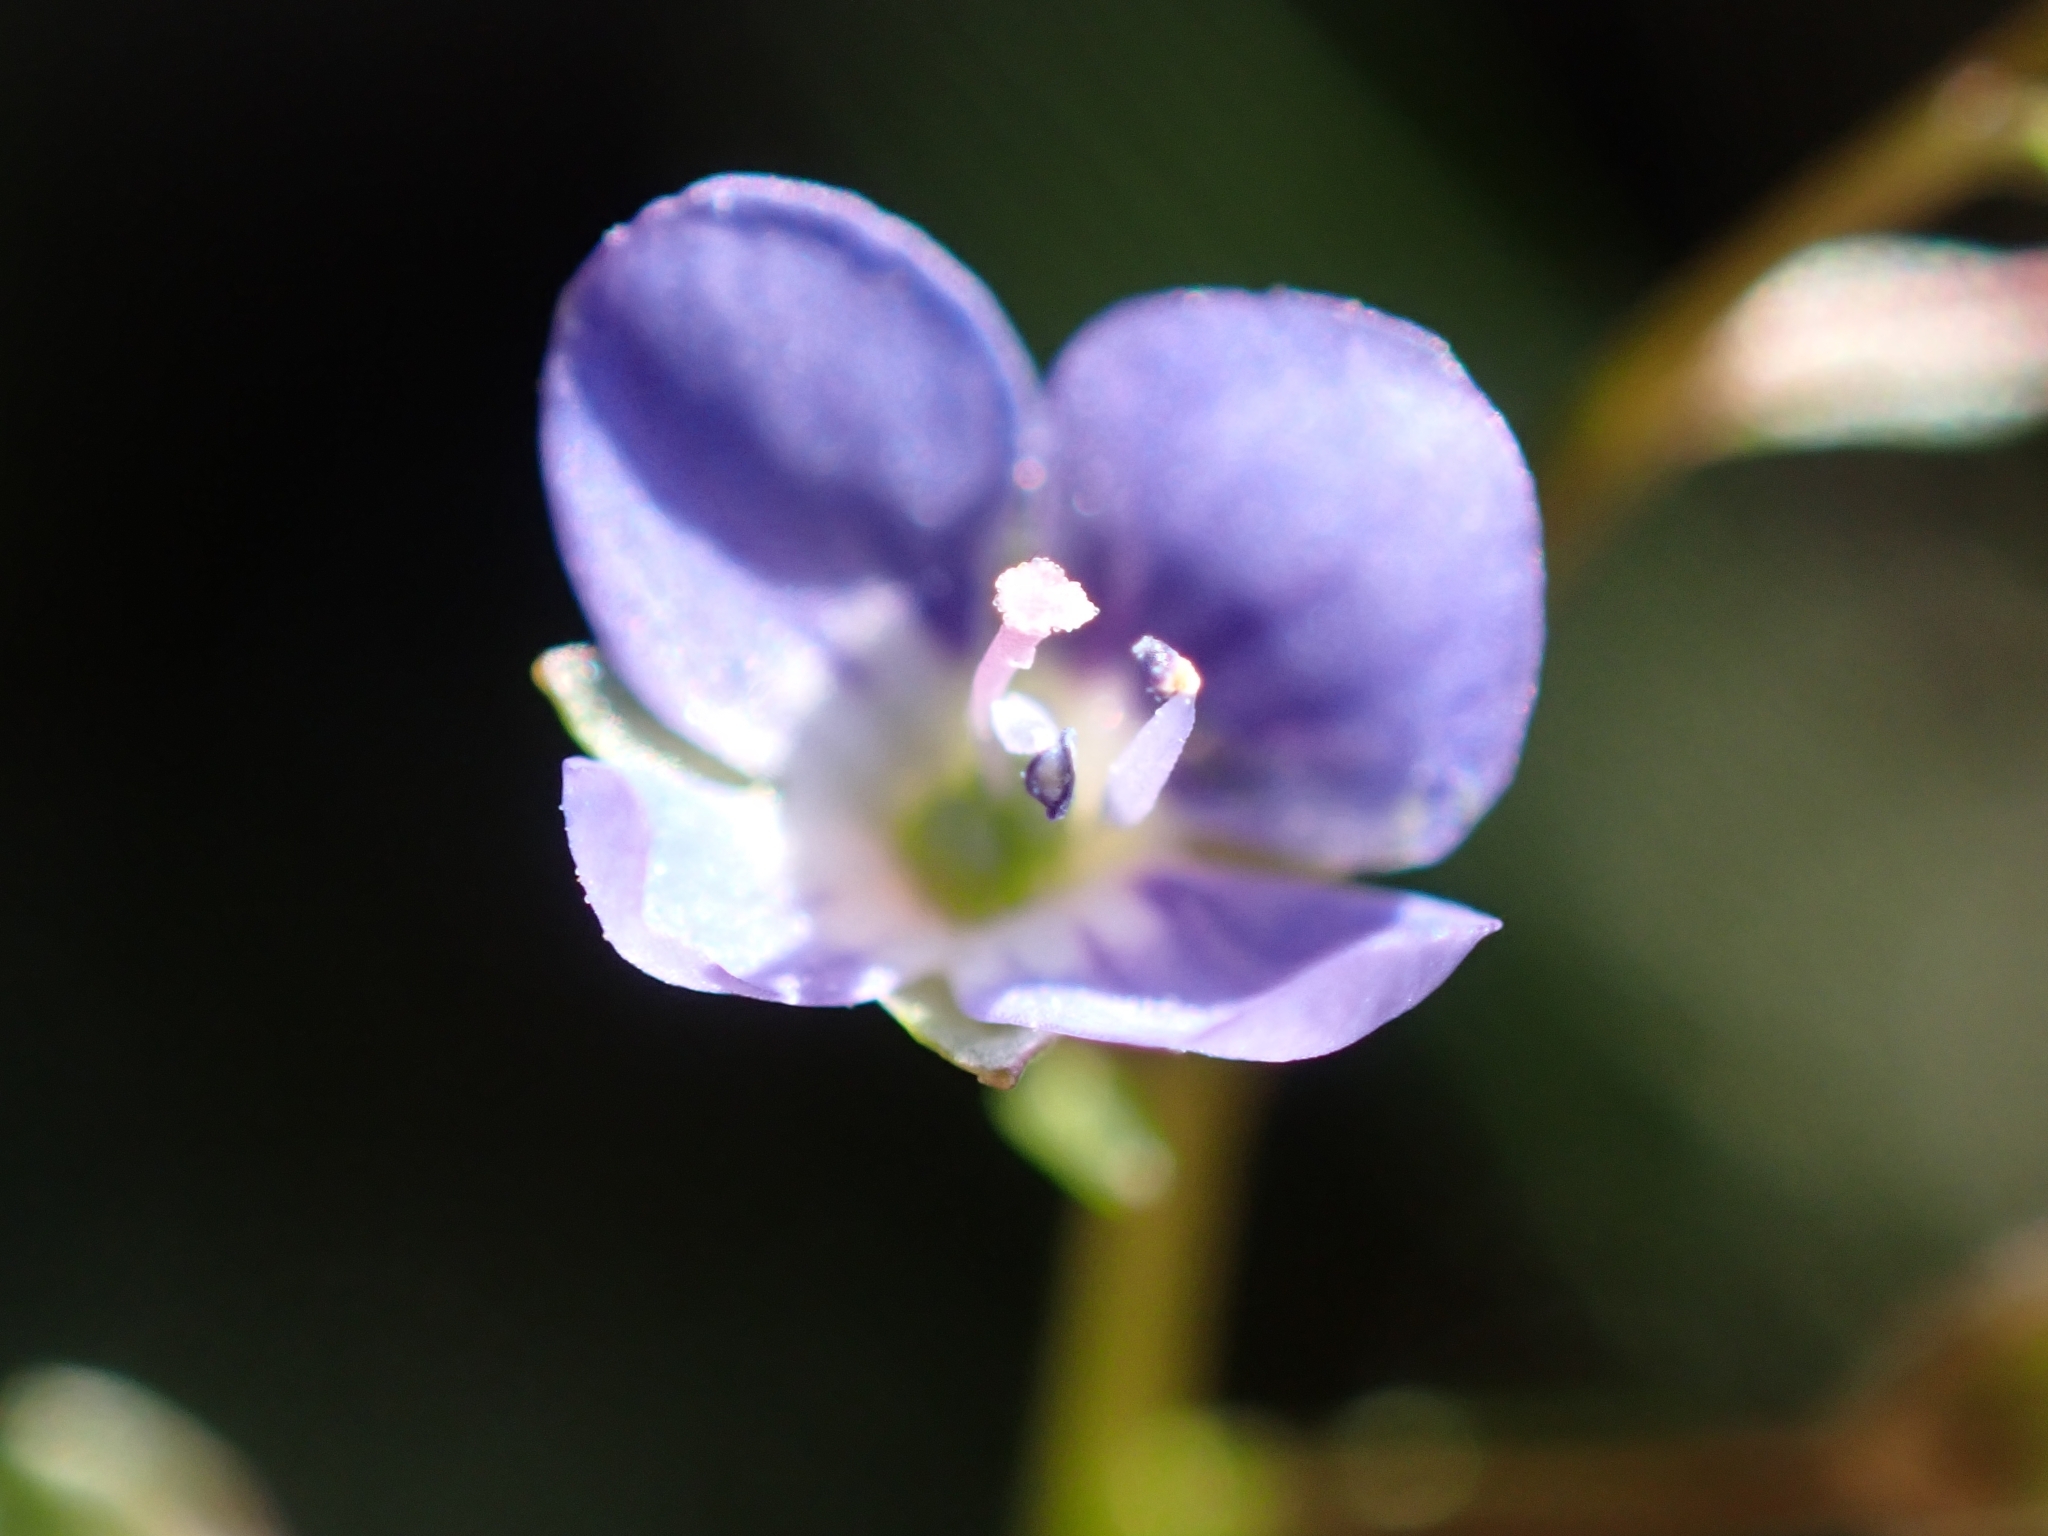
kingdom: Plantae
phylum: Tracheophyta
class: Magnoliopsida
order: Lamiales
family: Plantaginaceae
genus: Veronica
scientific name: Veronica beccabunga
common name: Brooklime
